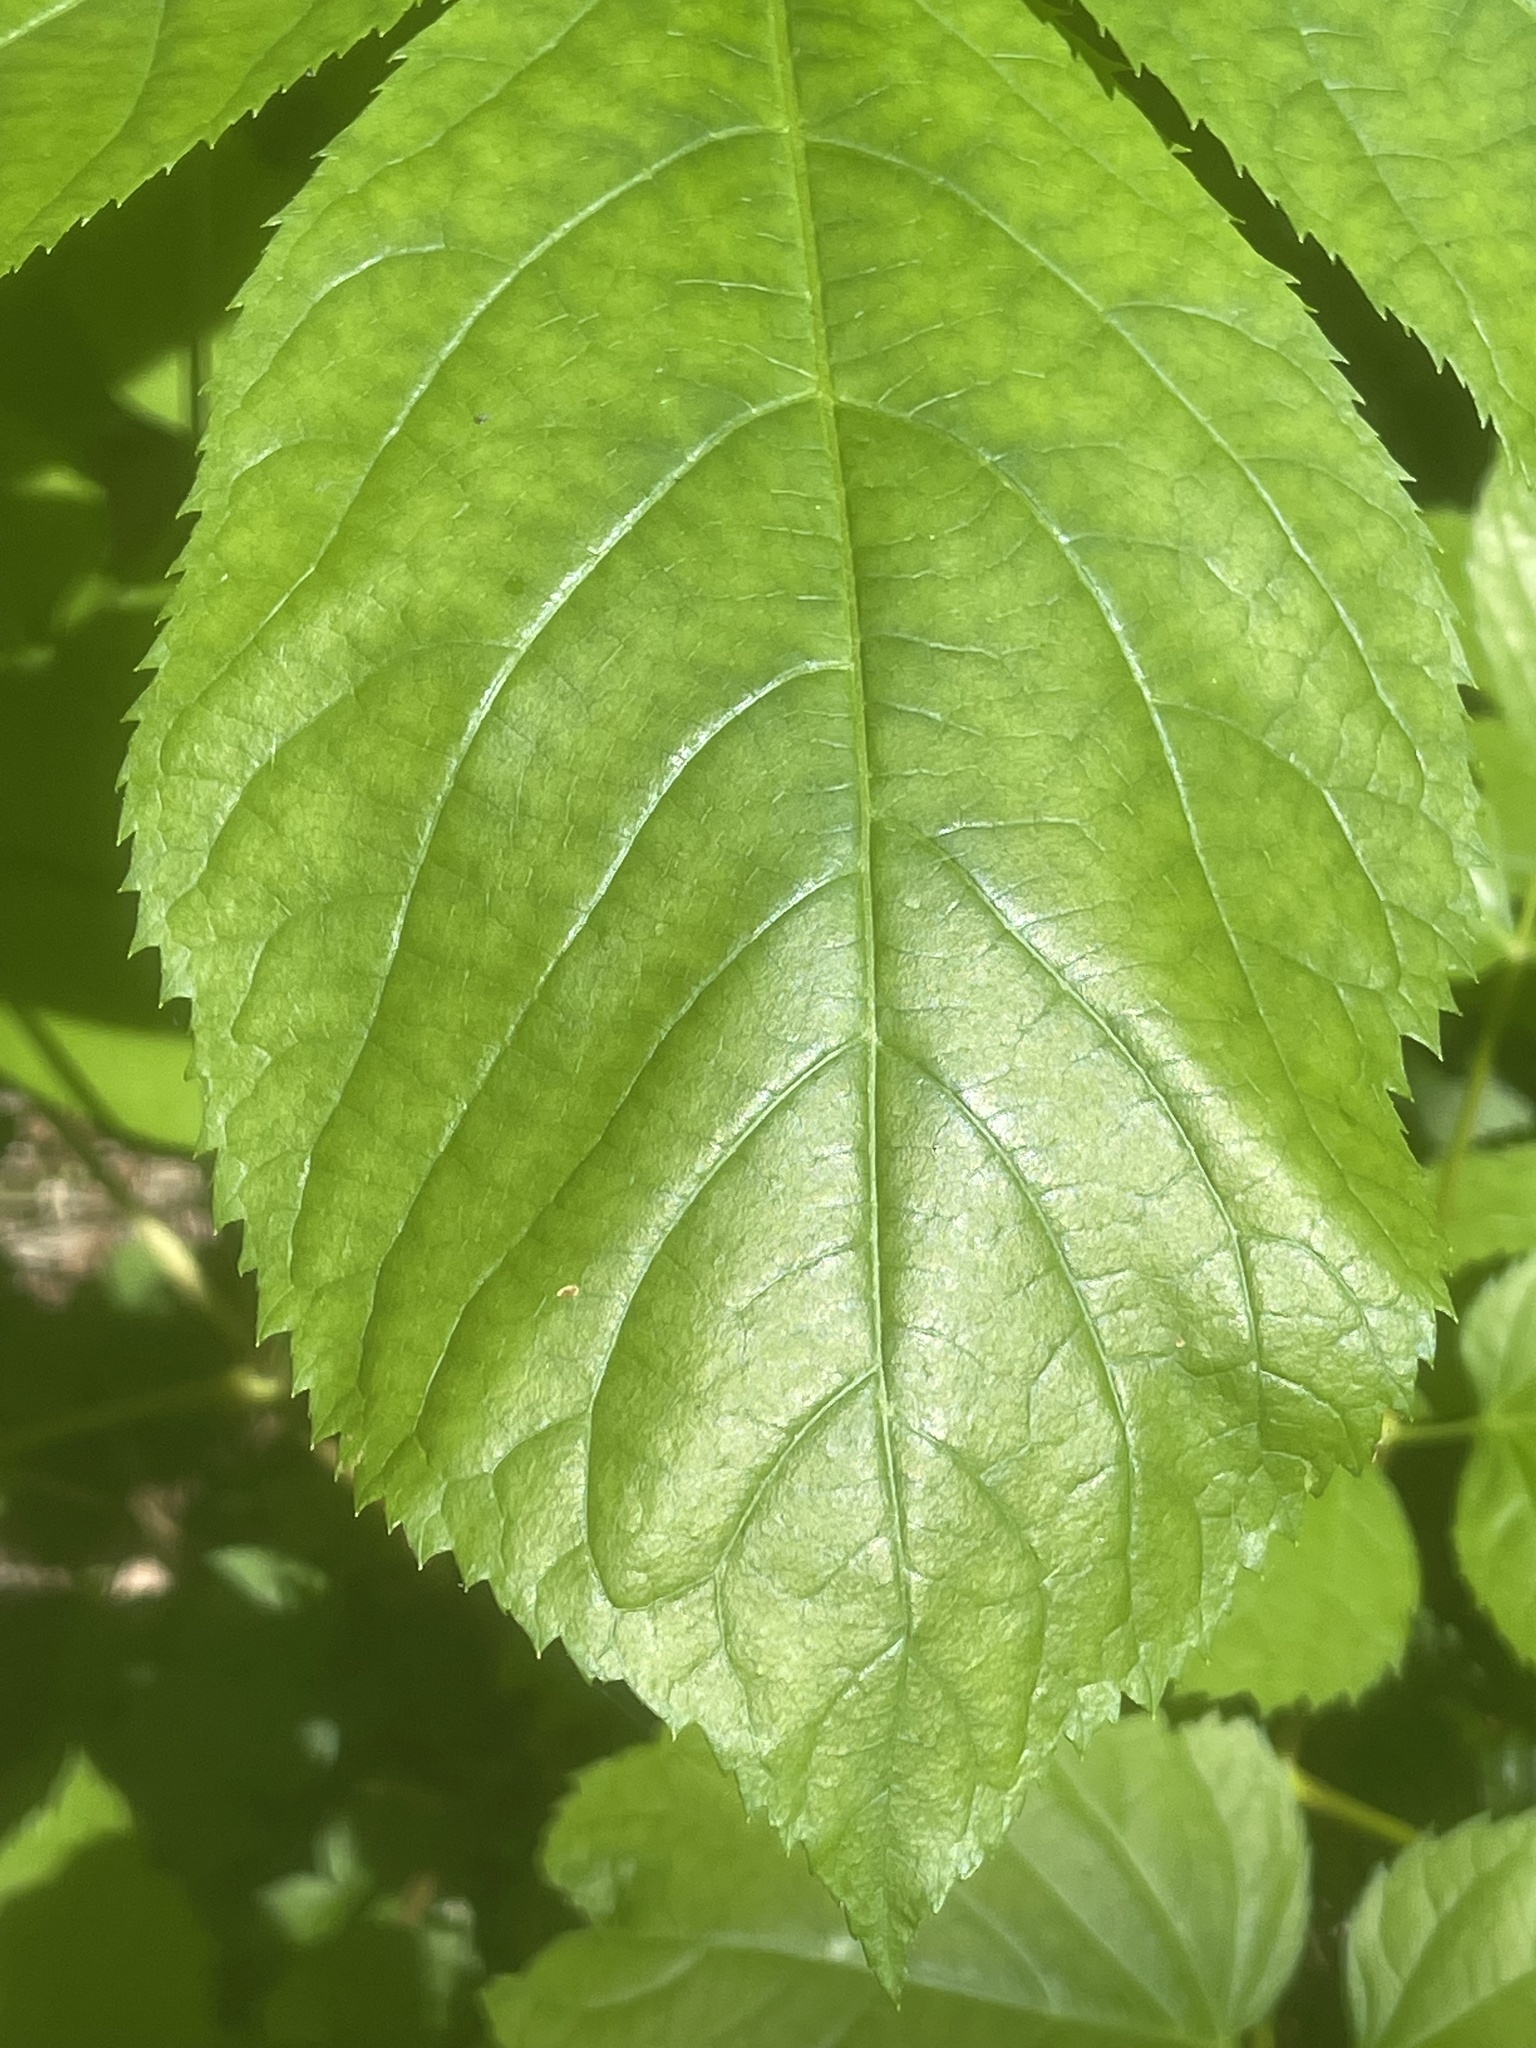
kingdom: Plantae
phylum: Tracheophyta
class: Magnoliopsida
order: Apiales
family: Araliaceae
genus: Aralia
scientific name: Aralia californica
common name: California-ginseng
